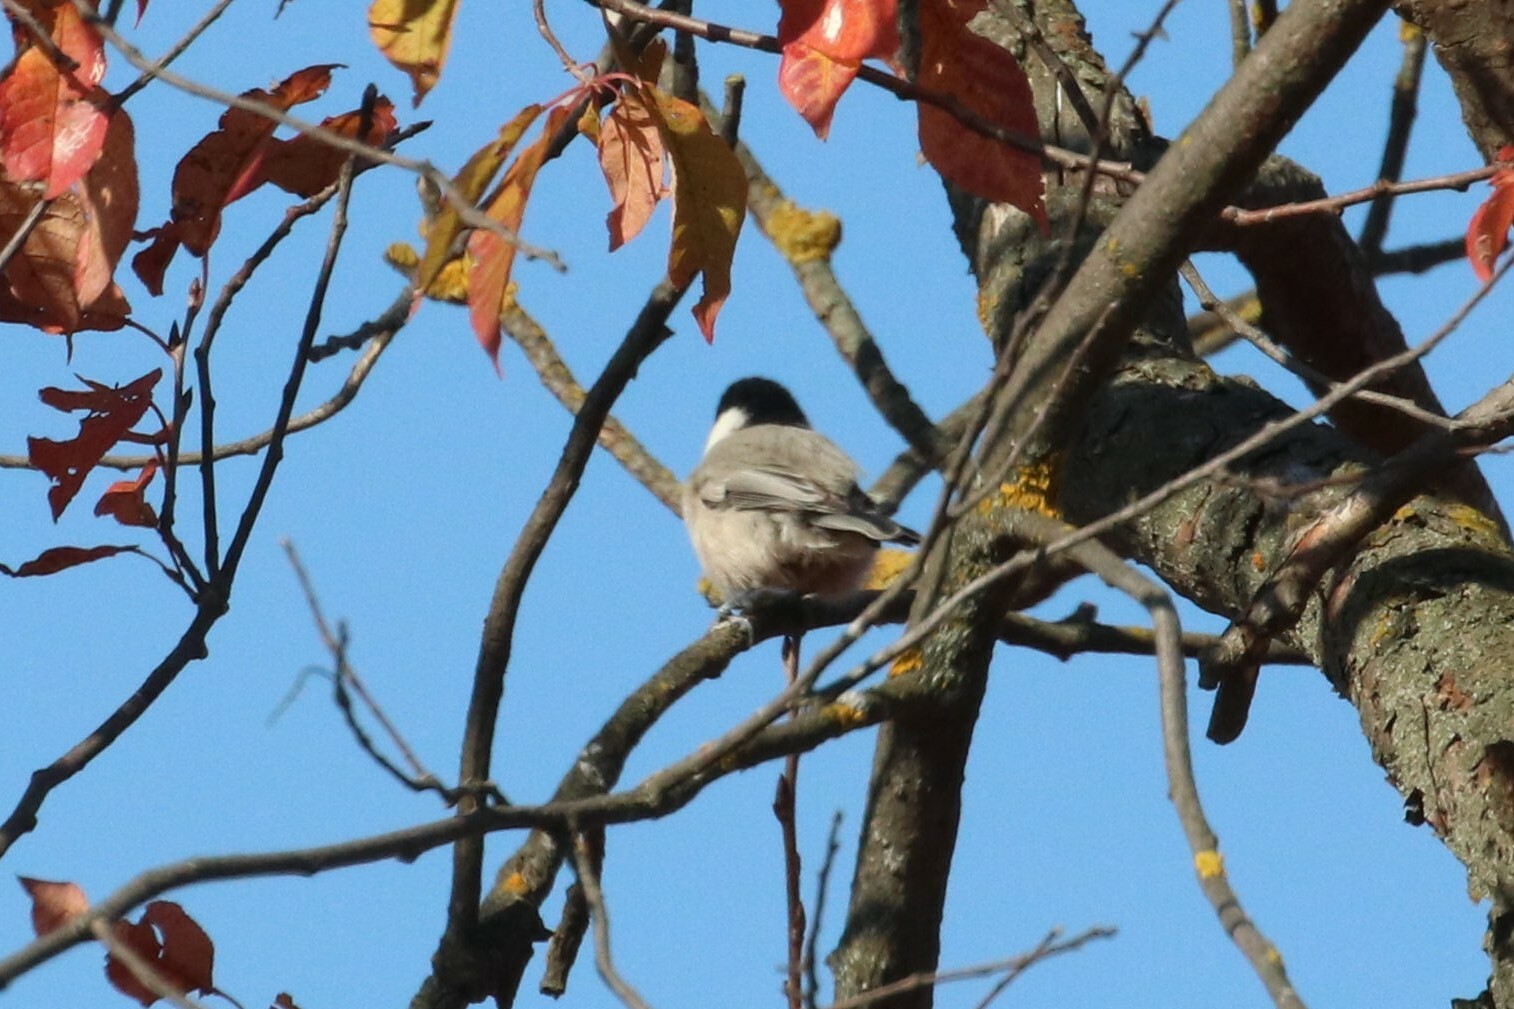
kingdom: Animalia
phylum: Chordata
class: Aves
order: Passeriformes
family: Paridae
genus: Poecile
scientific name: Poecile montanus
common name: Willow tit
